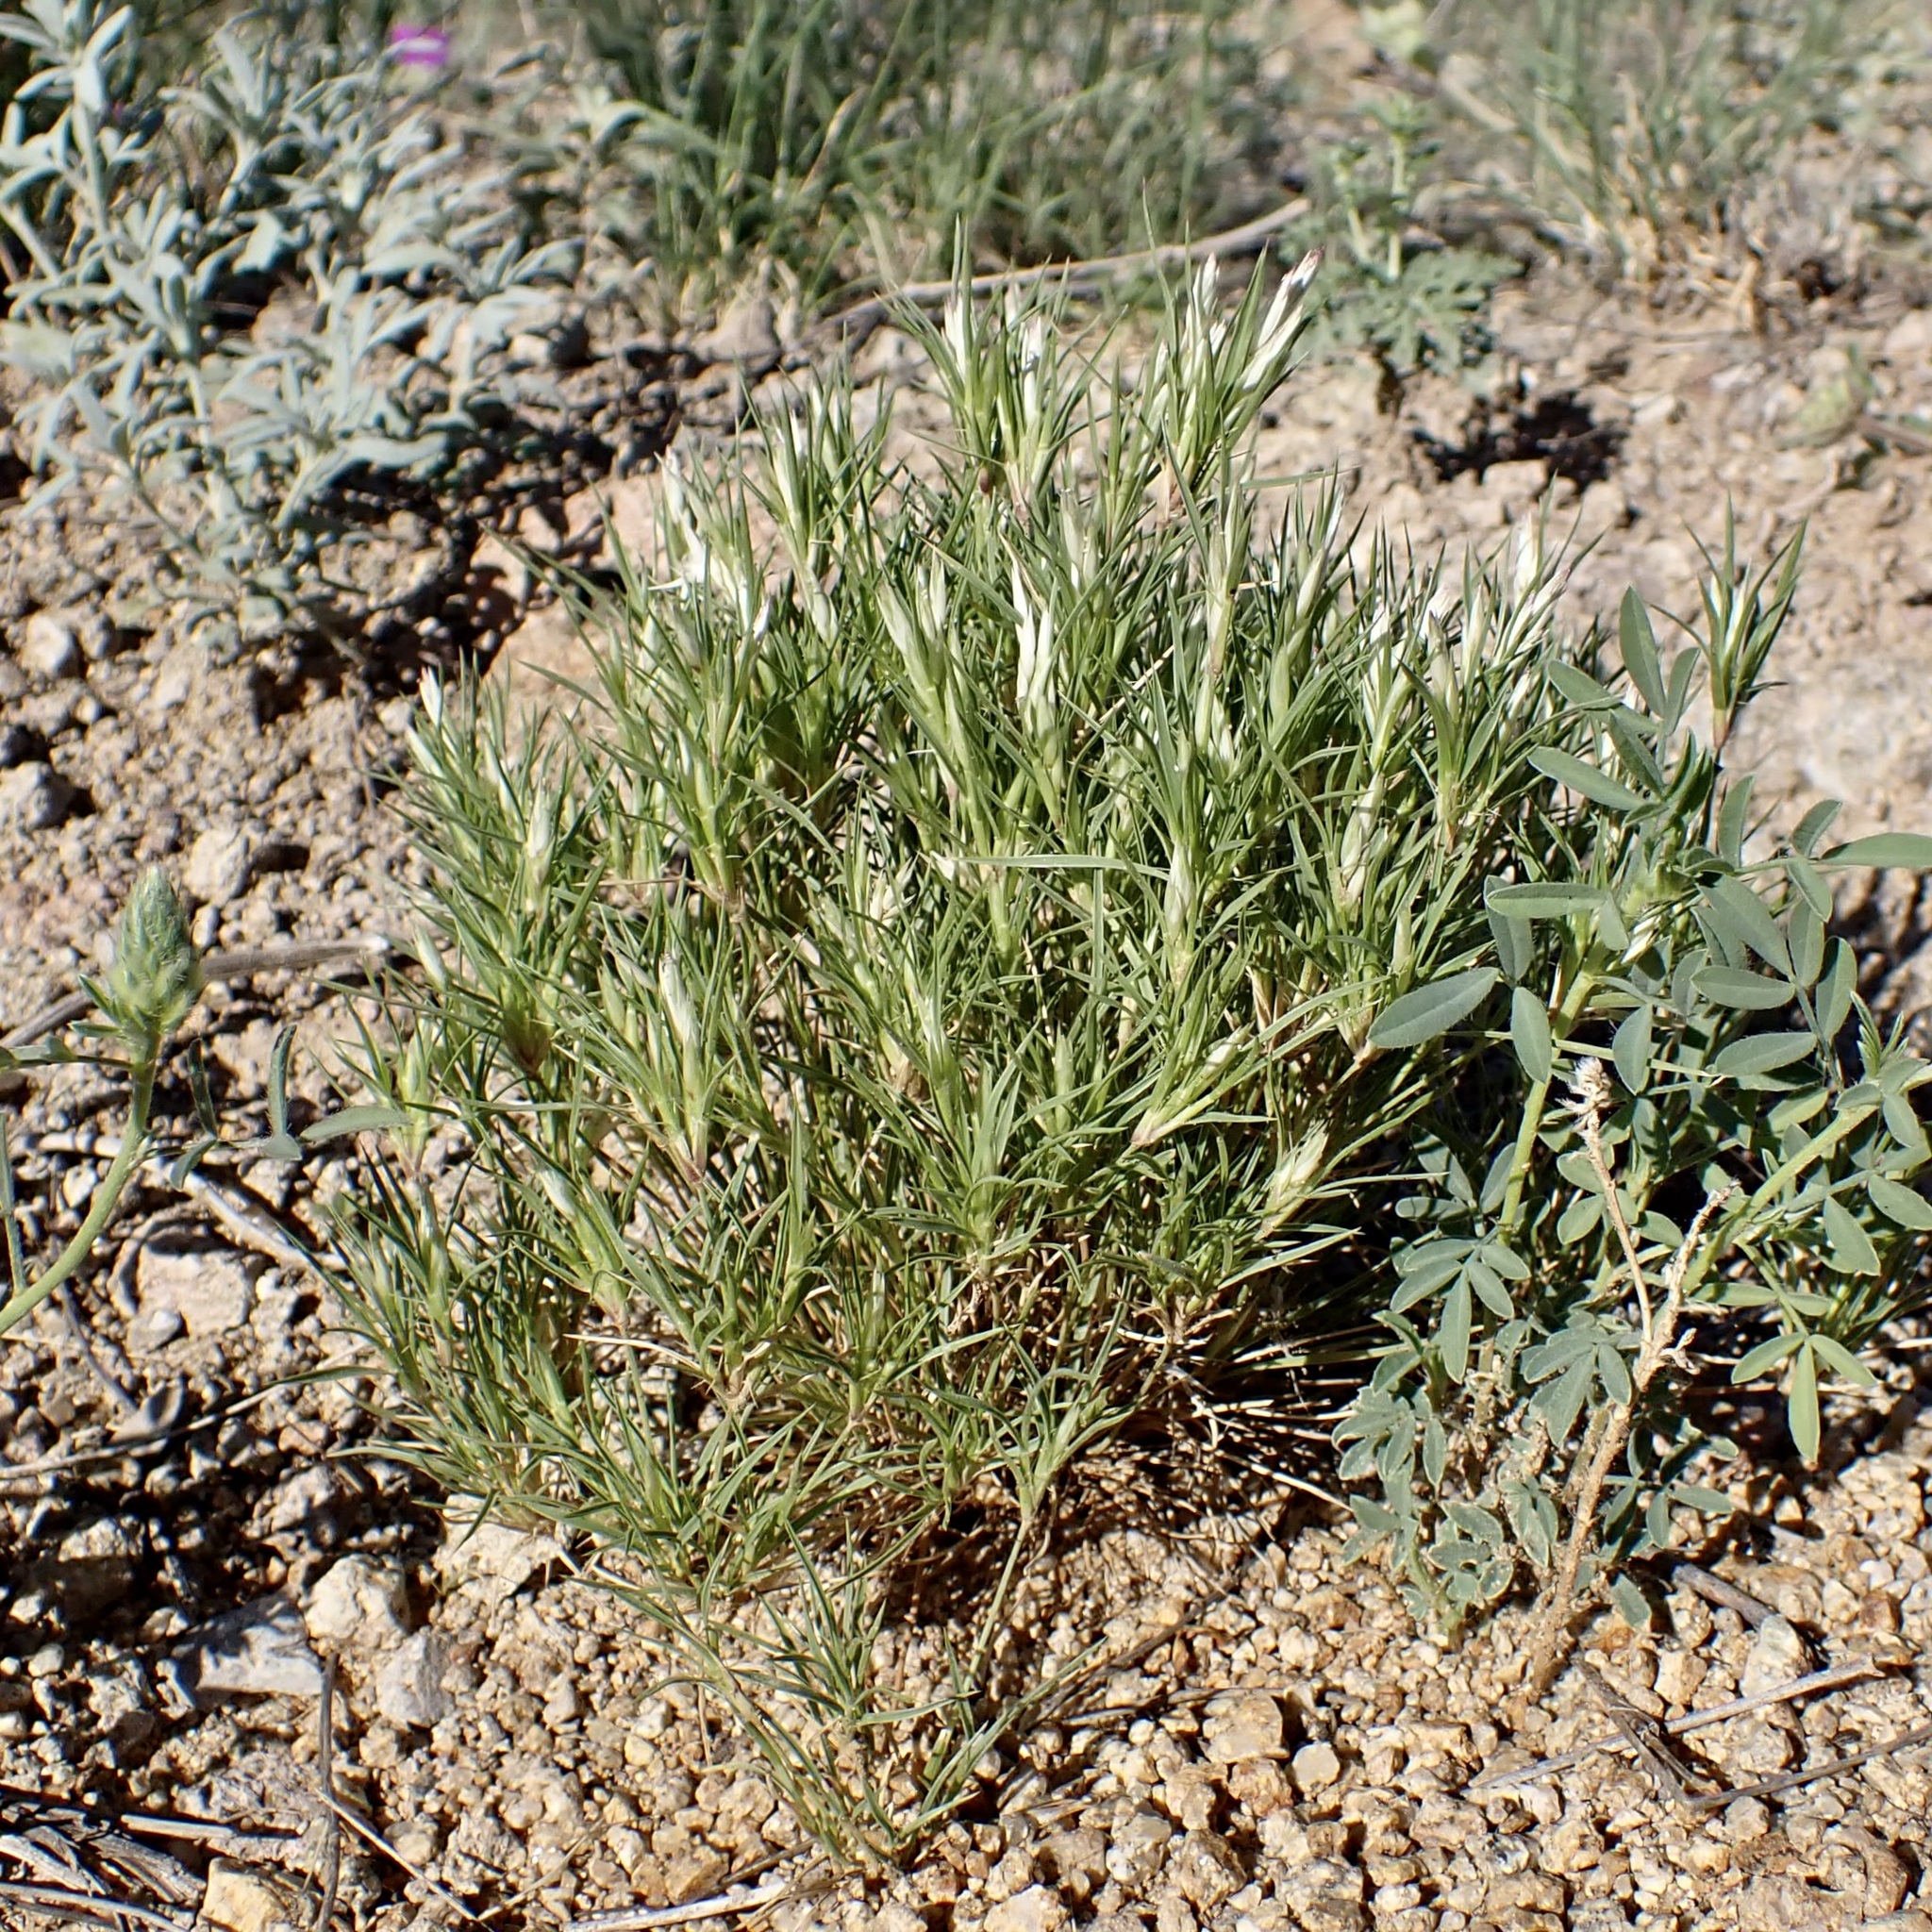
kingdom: Plantae
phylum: Tracheophyta
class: Liliopsida
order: Poales
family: Poaceae
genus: Dasyochloa
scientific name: Dasyochloa pulchella
